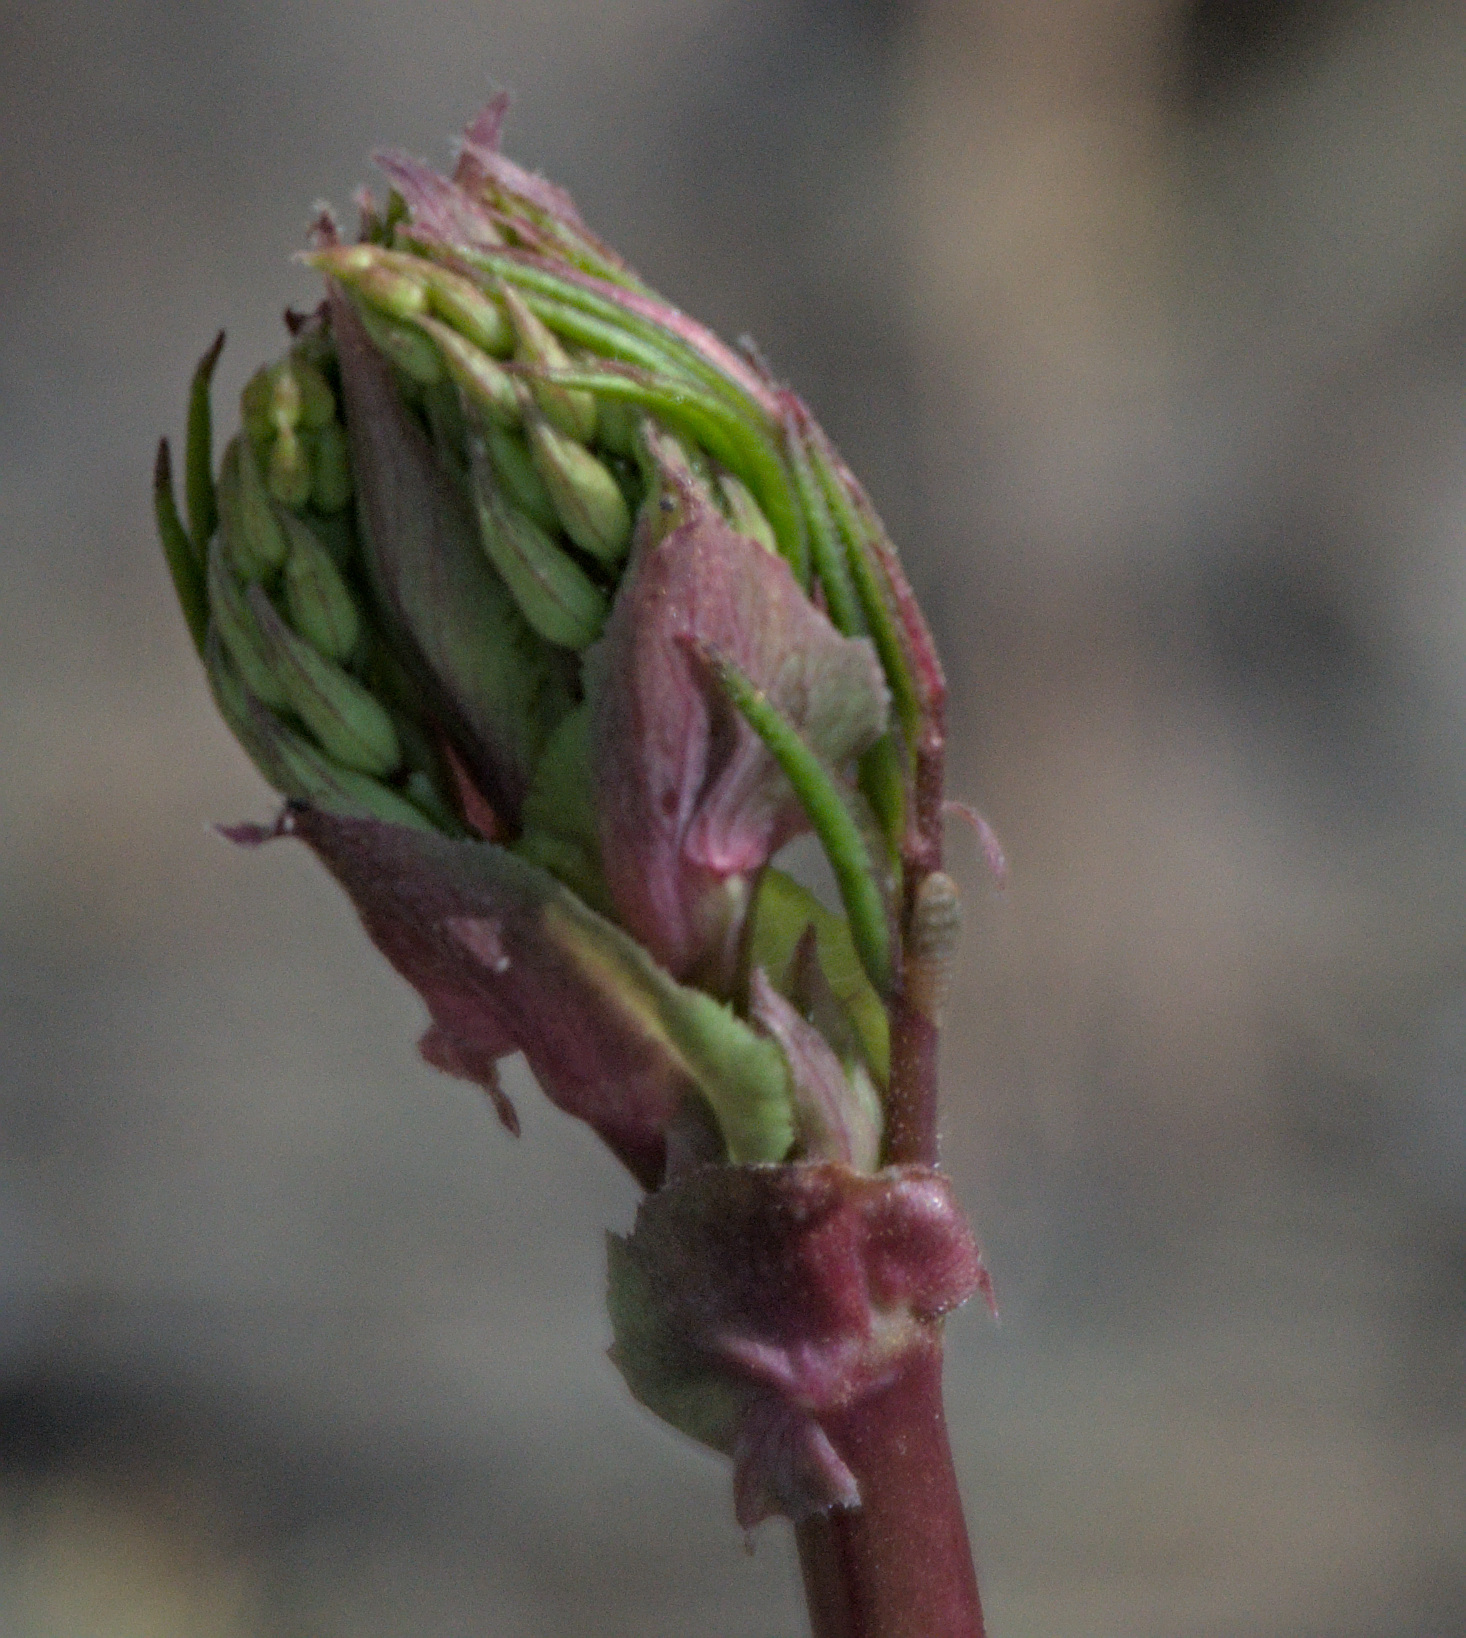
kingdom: Plantae
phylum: Tracheophyta
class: Magnoliopsida
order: Fabales
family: Fabaceae
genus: Lathyrus
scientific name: Lathyrus vernus
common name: Spring pea
